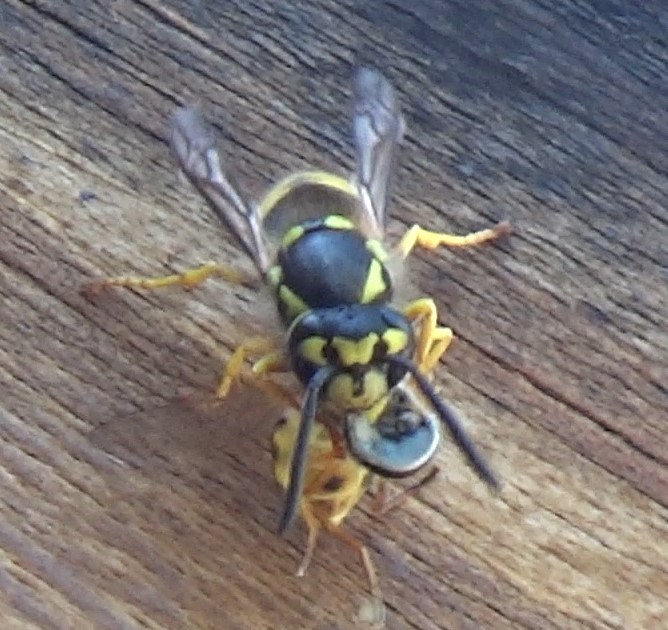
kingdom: Animalia
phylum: Arthropoda
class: Insecta
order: Hymenoptera
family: Vespidae
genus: Vespula
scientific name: Vespula germanica
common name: German wasp
